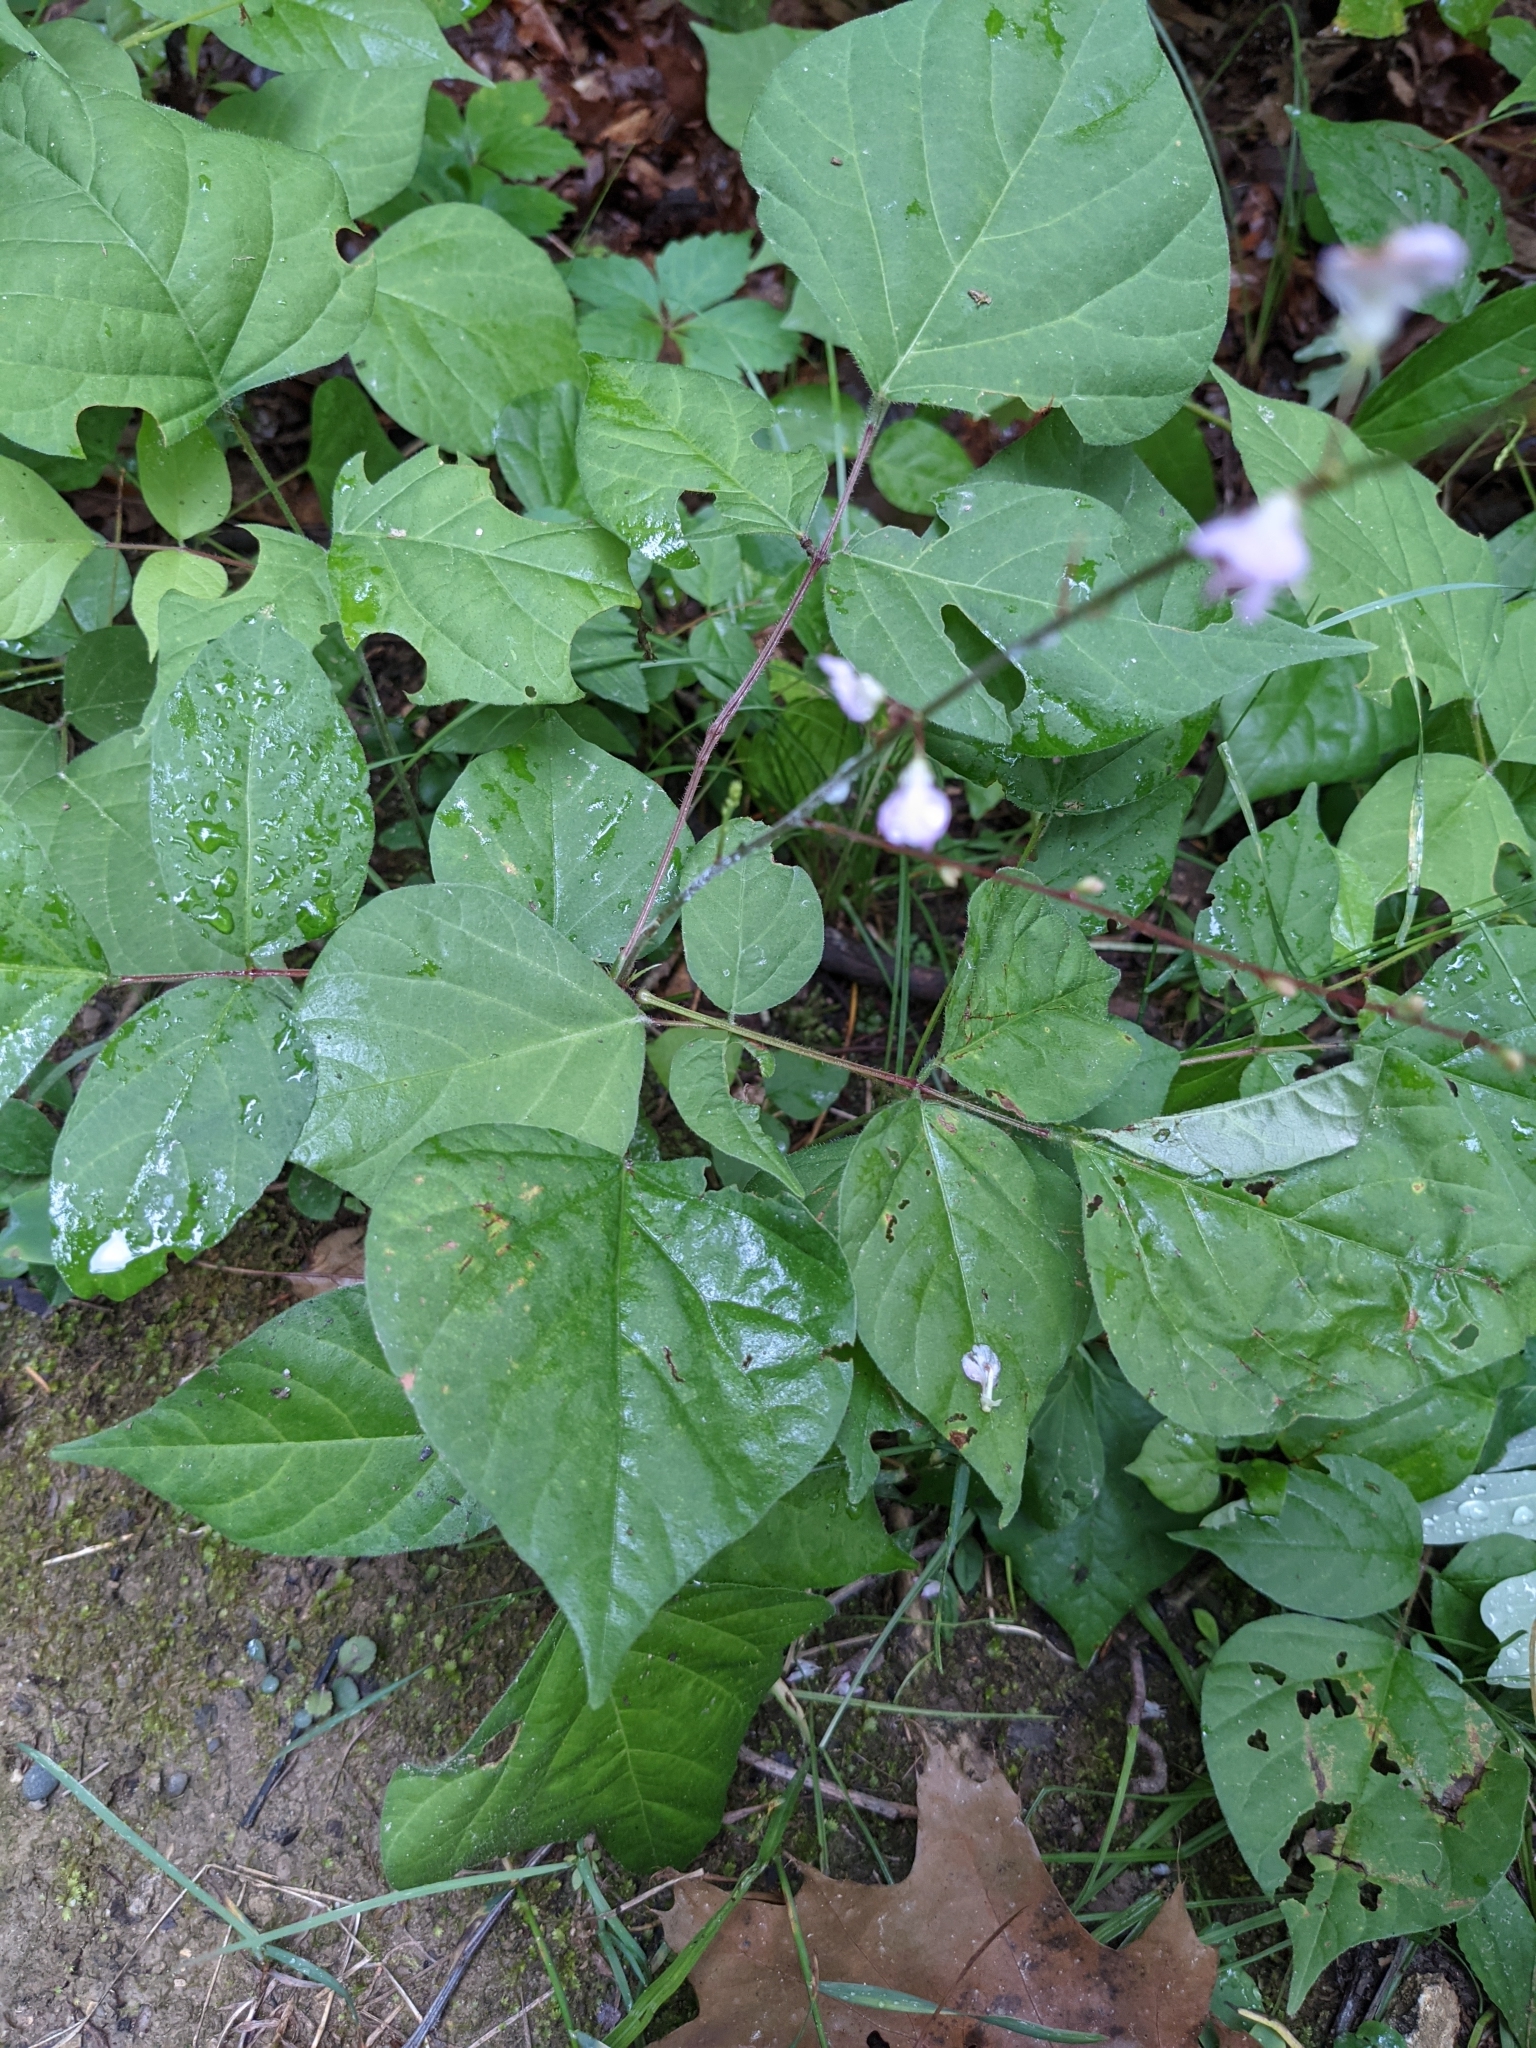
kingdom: Plantae
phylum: Tracheophyta
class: Magnoliopsida
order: Fabales
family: Fabaceae
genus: Hylodesmum
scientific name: Hylodesmum glutinosum
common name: Clustered-leaved tick-trefoil
